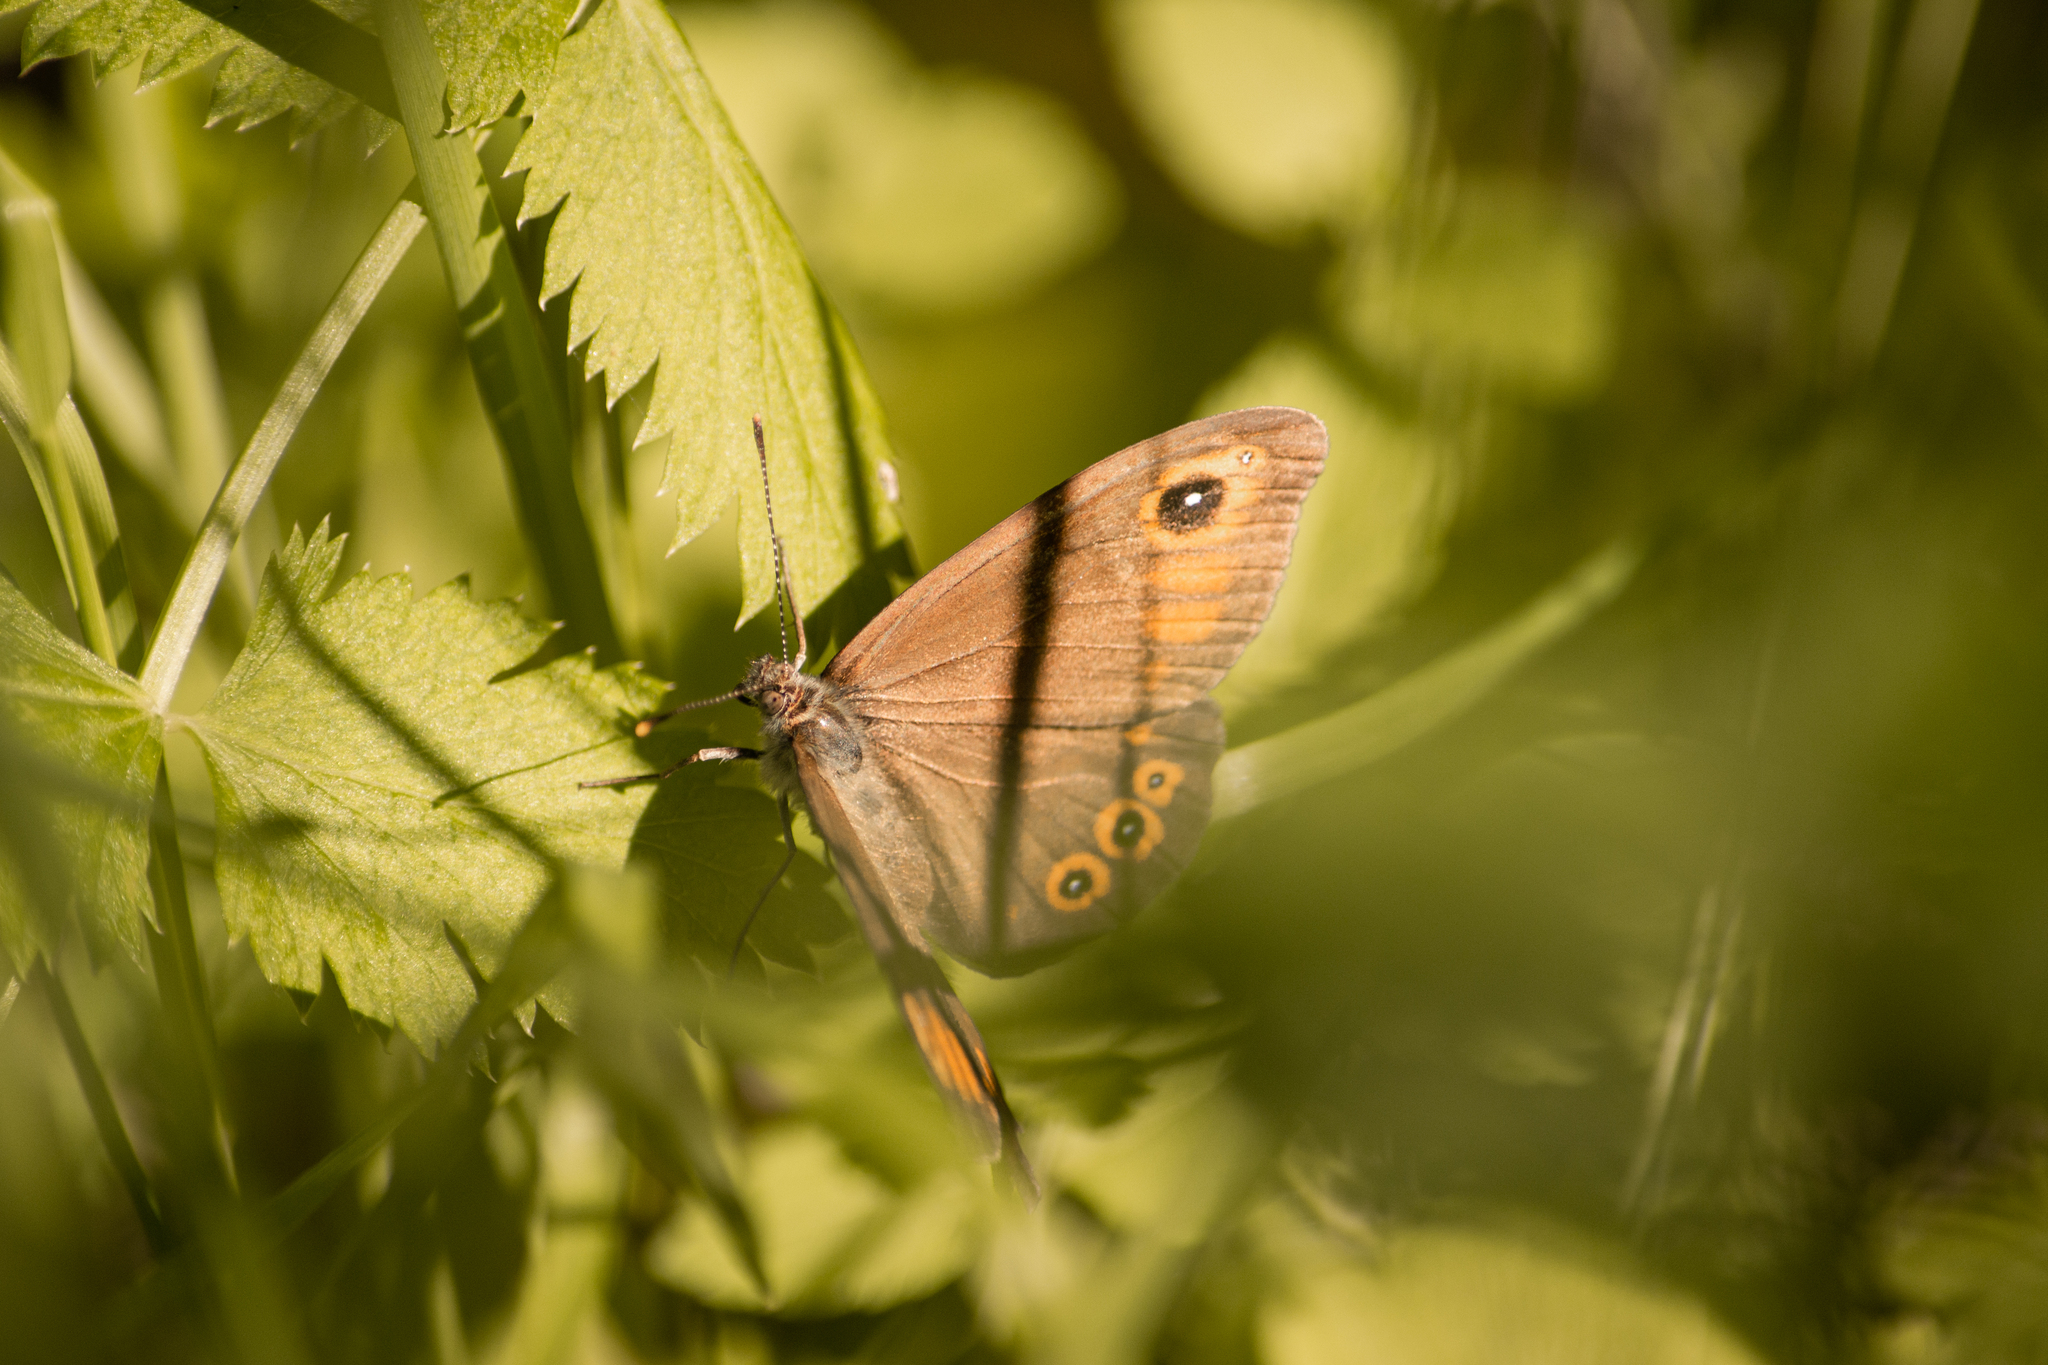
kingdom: Animalia
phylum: Arthropoda
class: Insecta
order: Lepidoptera
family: Nymphalidae
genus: Pararge
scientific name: Pararge Lasiommata maera
